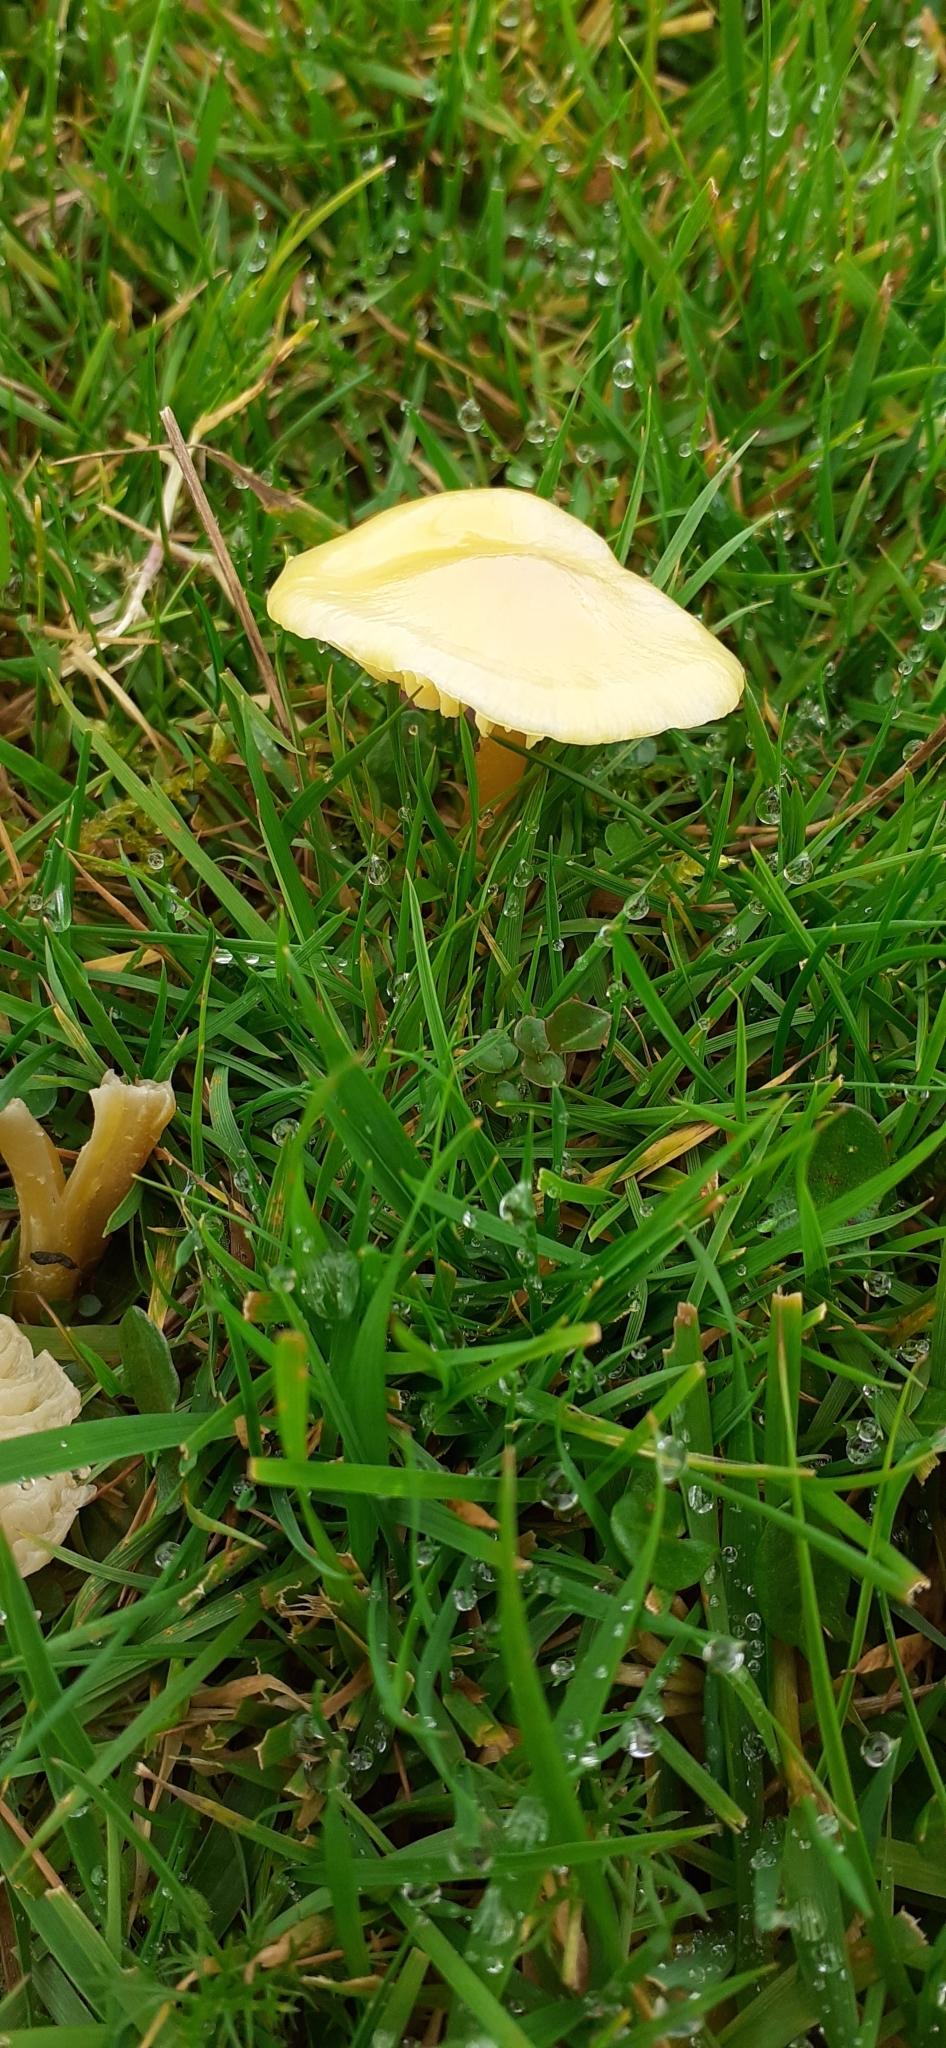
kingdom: Fungi
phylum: Basidiomycota
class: Agaricomycetes
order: Agaricales
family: Hygrophoraceae
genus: Hygrocybe
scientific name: Hygrocybe chlorophana
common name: Golden waxcap
